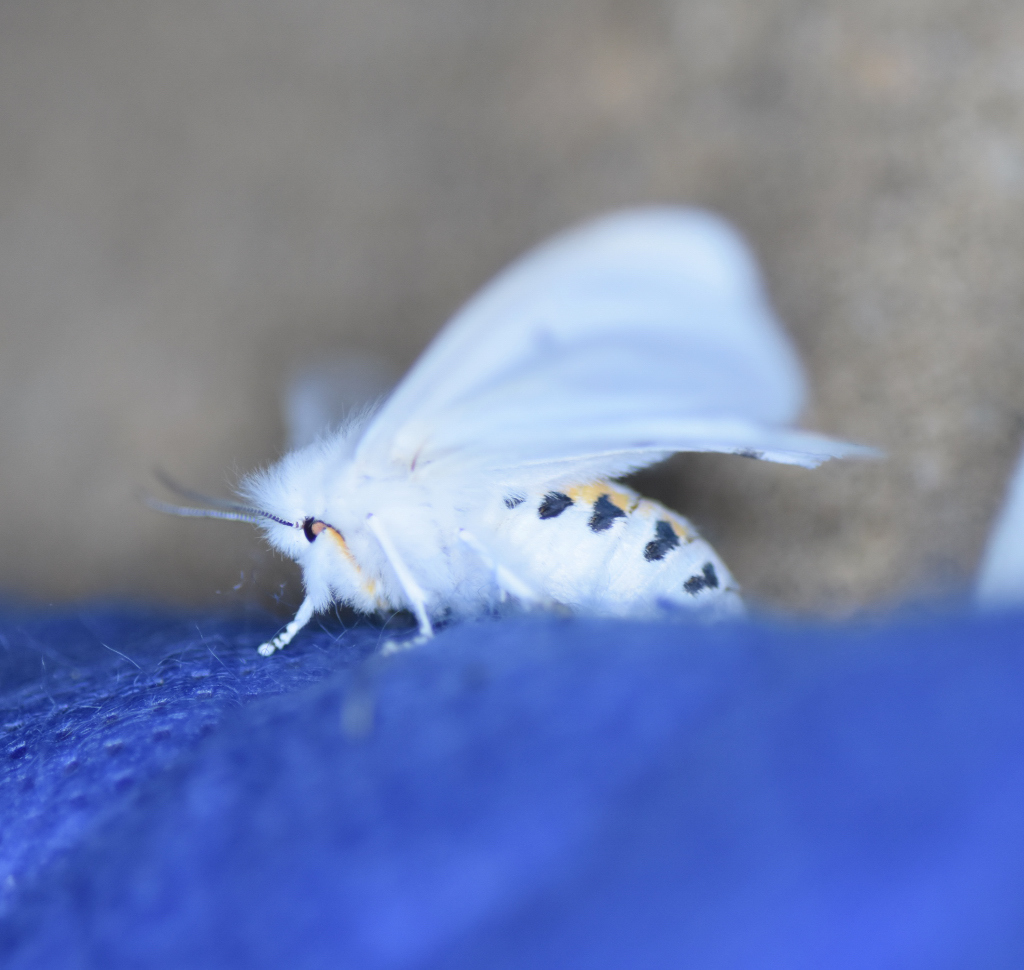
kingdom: Animalia
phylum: Arthropoda
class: Insecta
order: Lepidoptera
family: Erebidae
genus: Spilosoma
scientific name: Spilosoma virginica
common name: Virginia tiger moth
